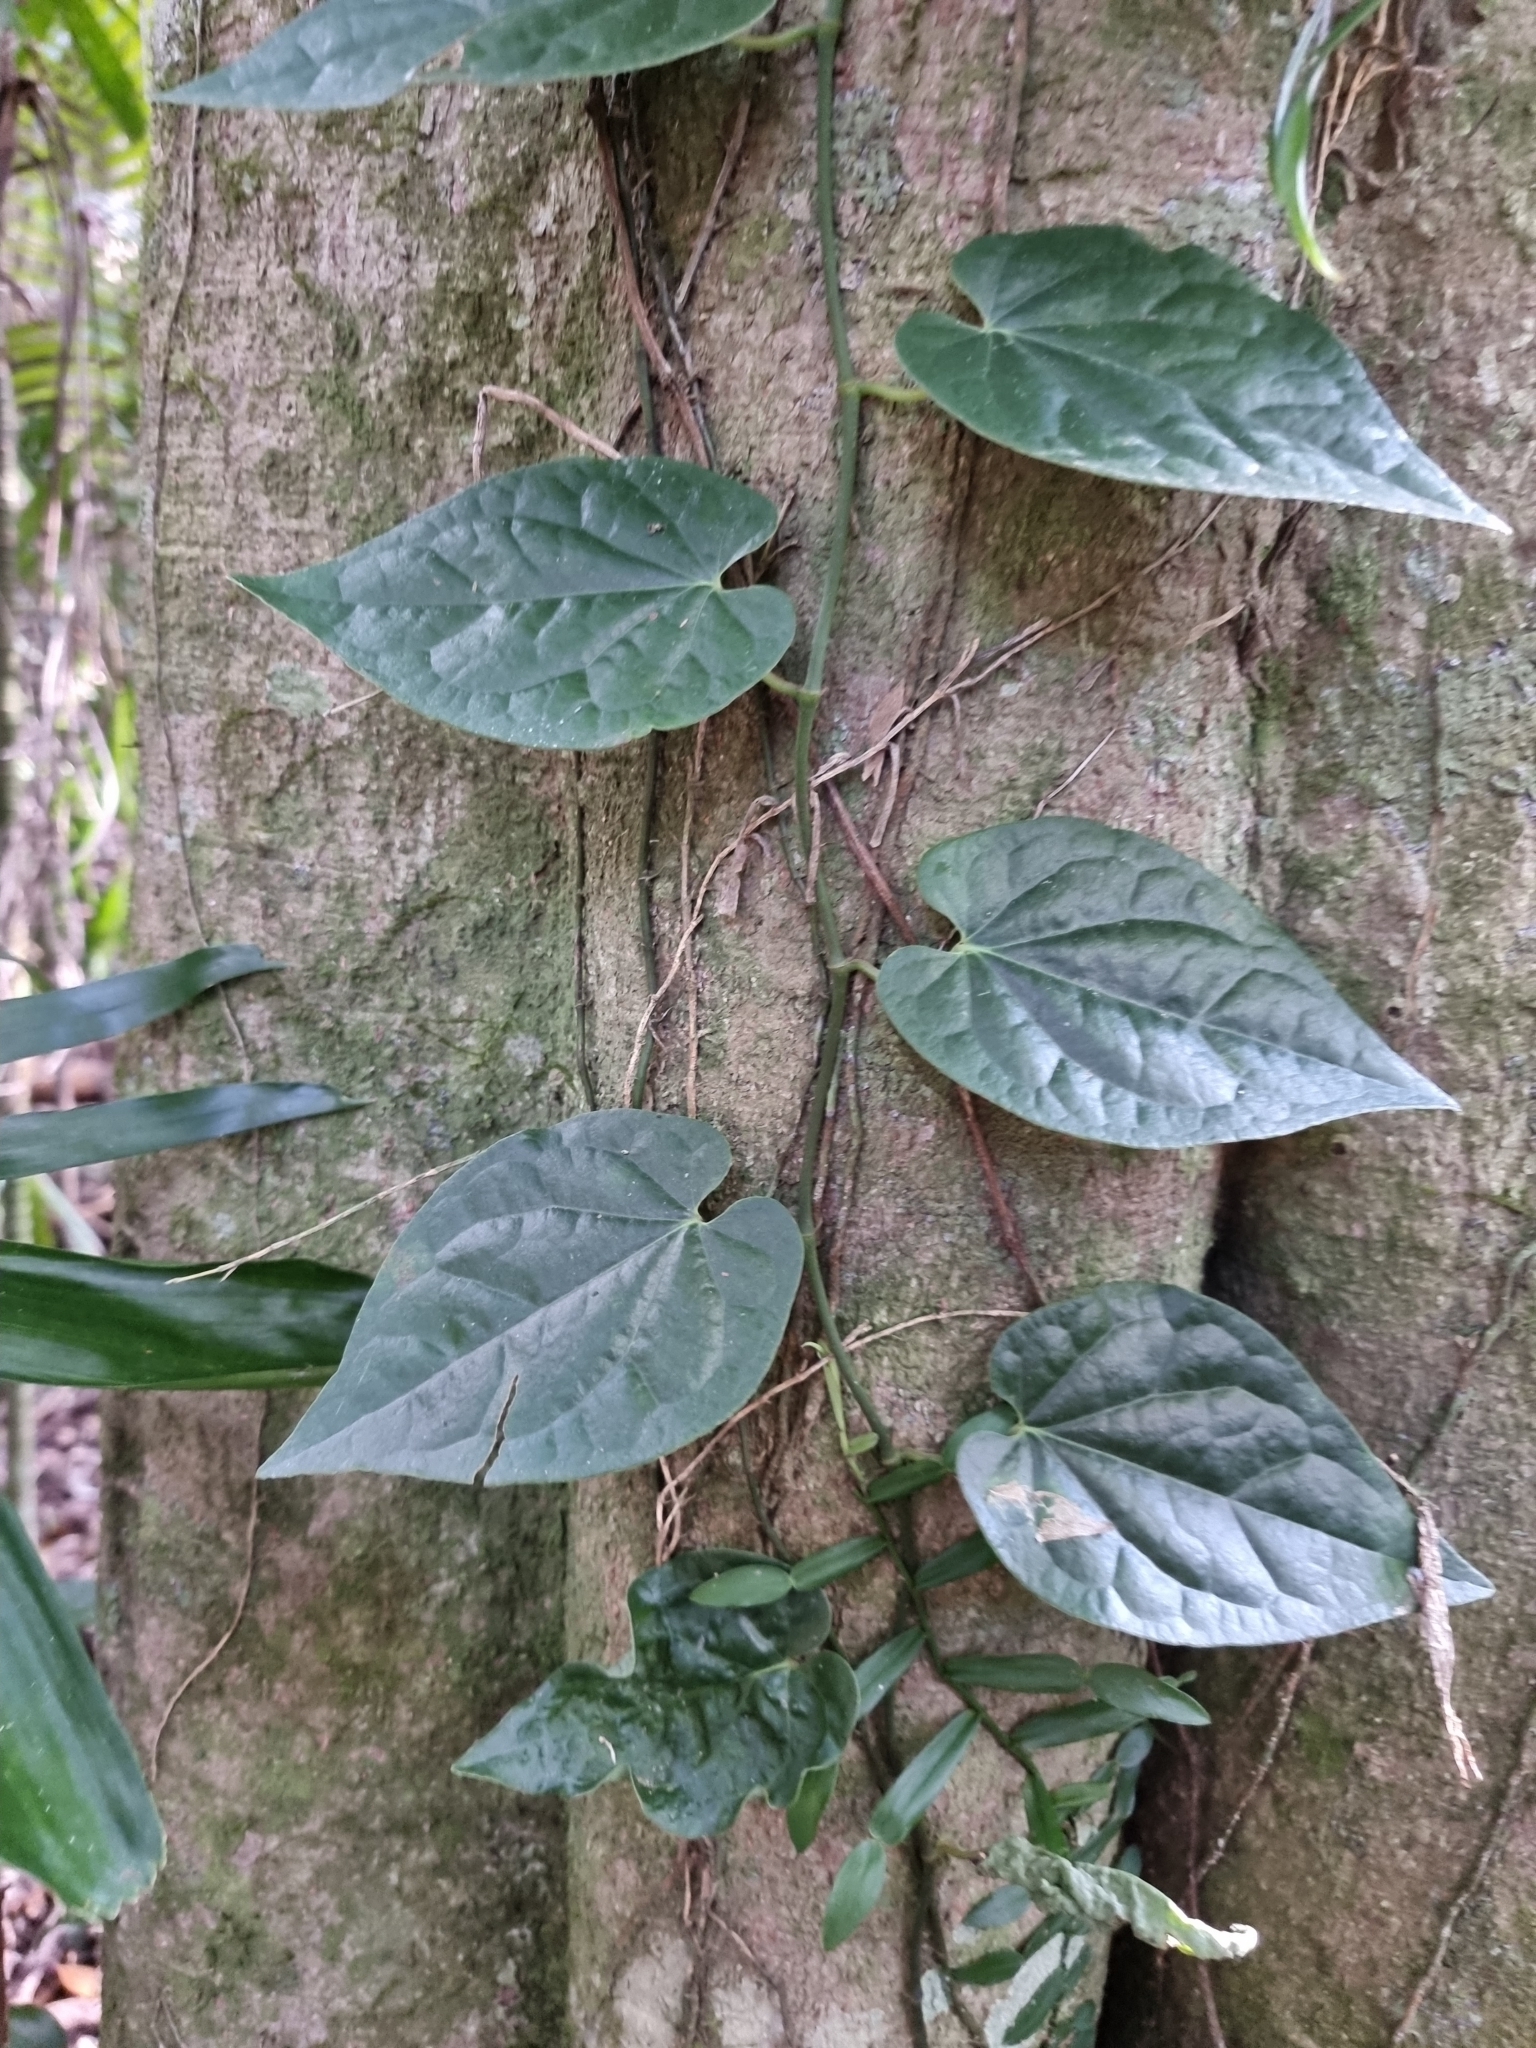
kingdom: Plantae
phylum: Tracheophyta
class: Magnoliopsida
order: Piperales
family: Piperaceae
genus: Piper
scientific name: Piper hederaceum
